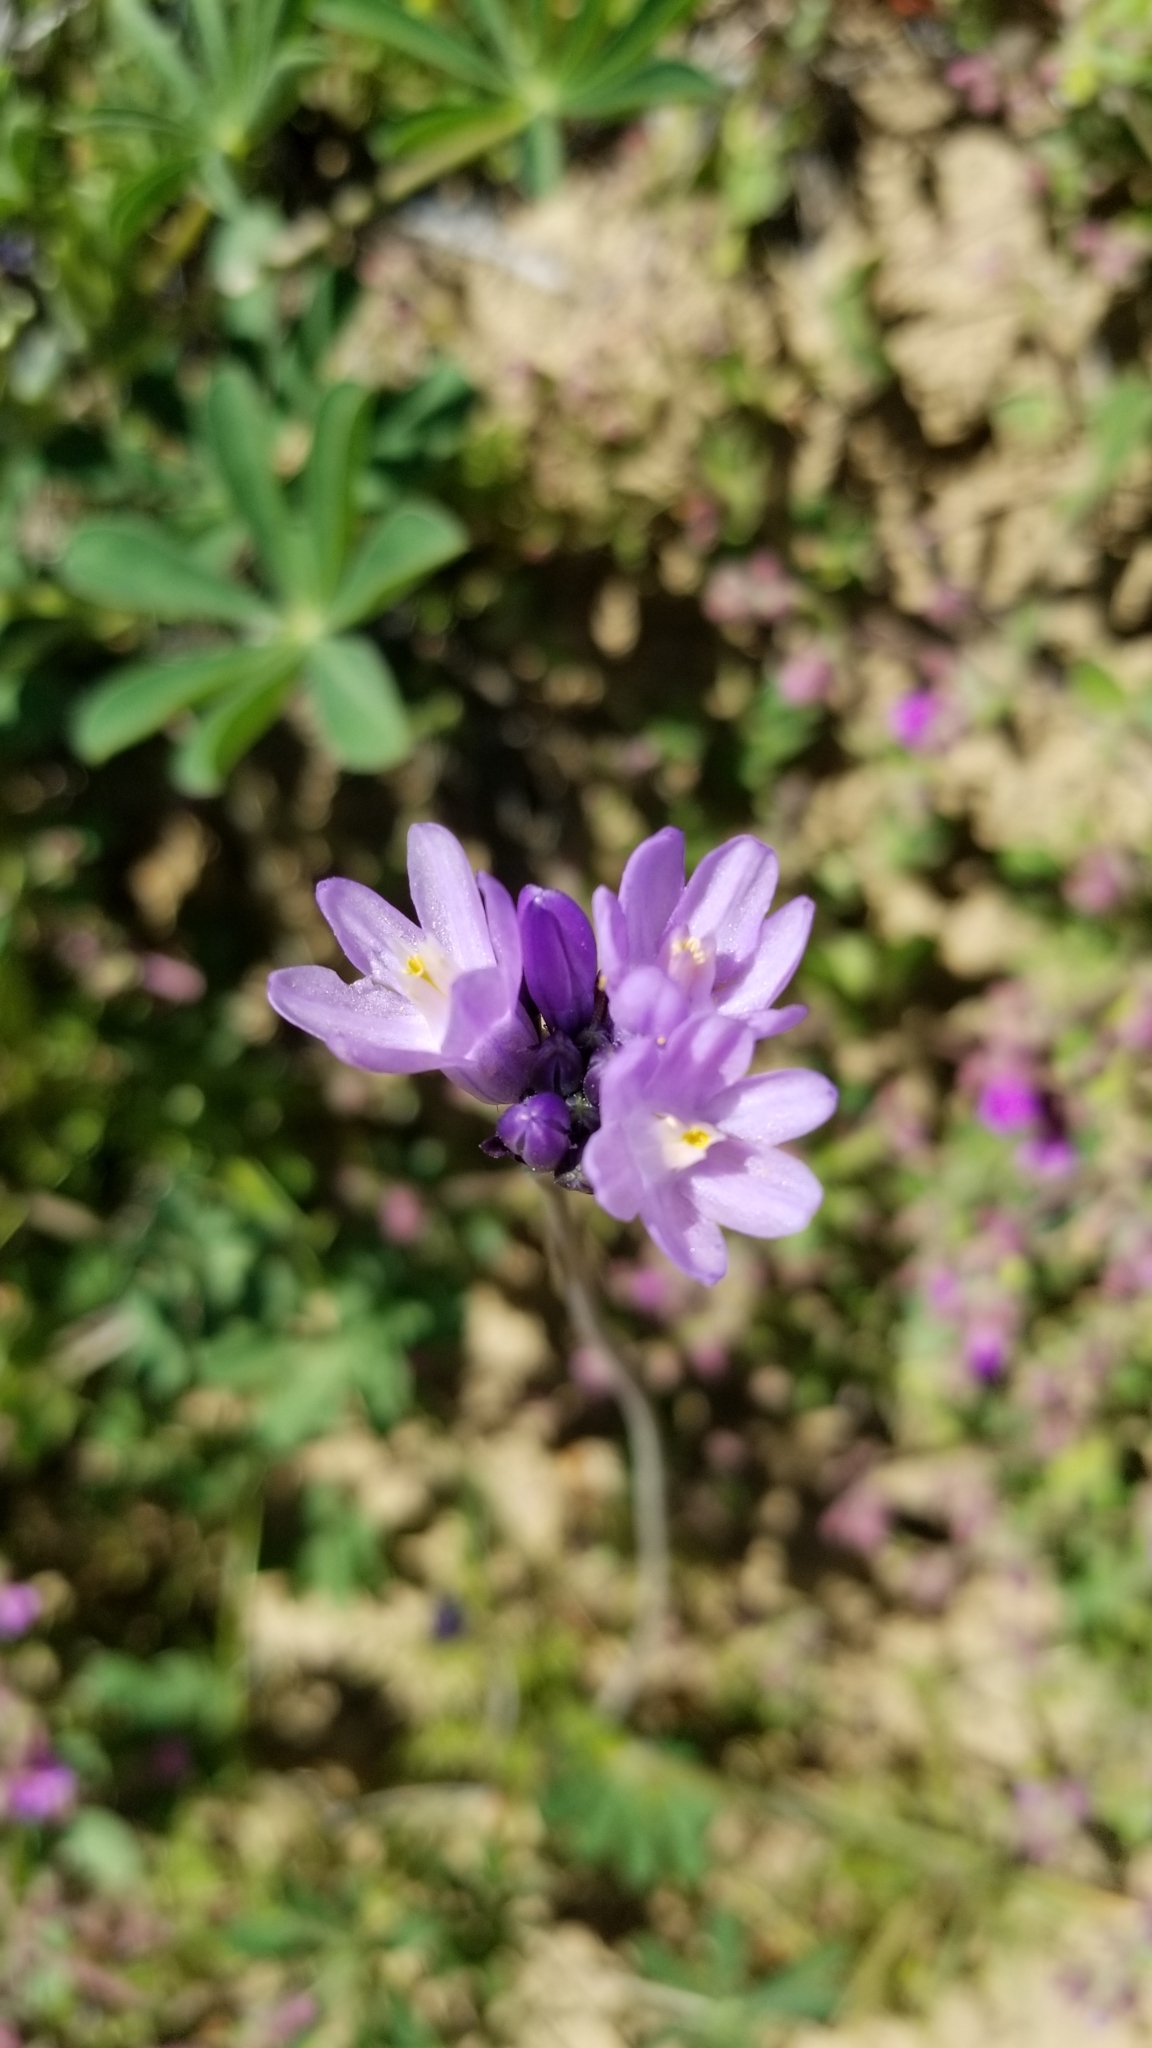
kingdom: Plantae
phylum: Tracheophyta
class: Liliopsida
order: Asparagales
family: Asparagaceae
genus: Dipterostemon
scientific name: Dipterostemon capitatus
